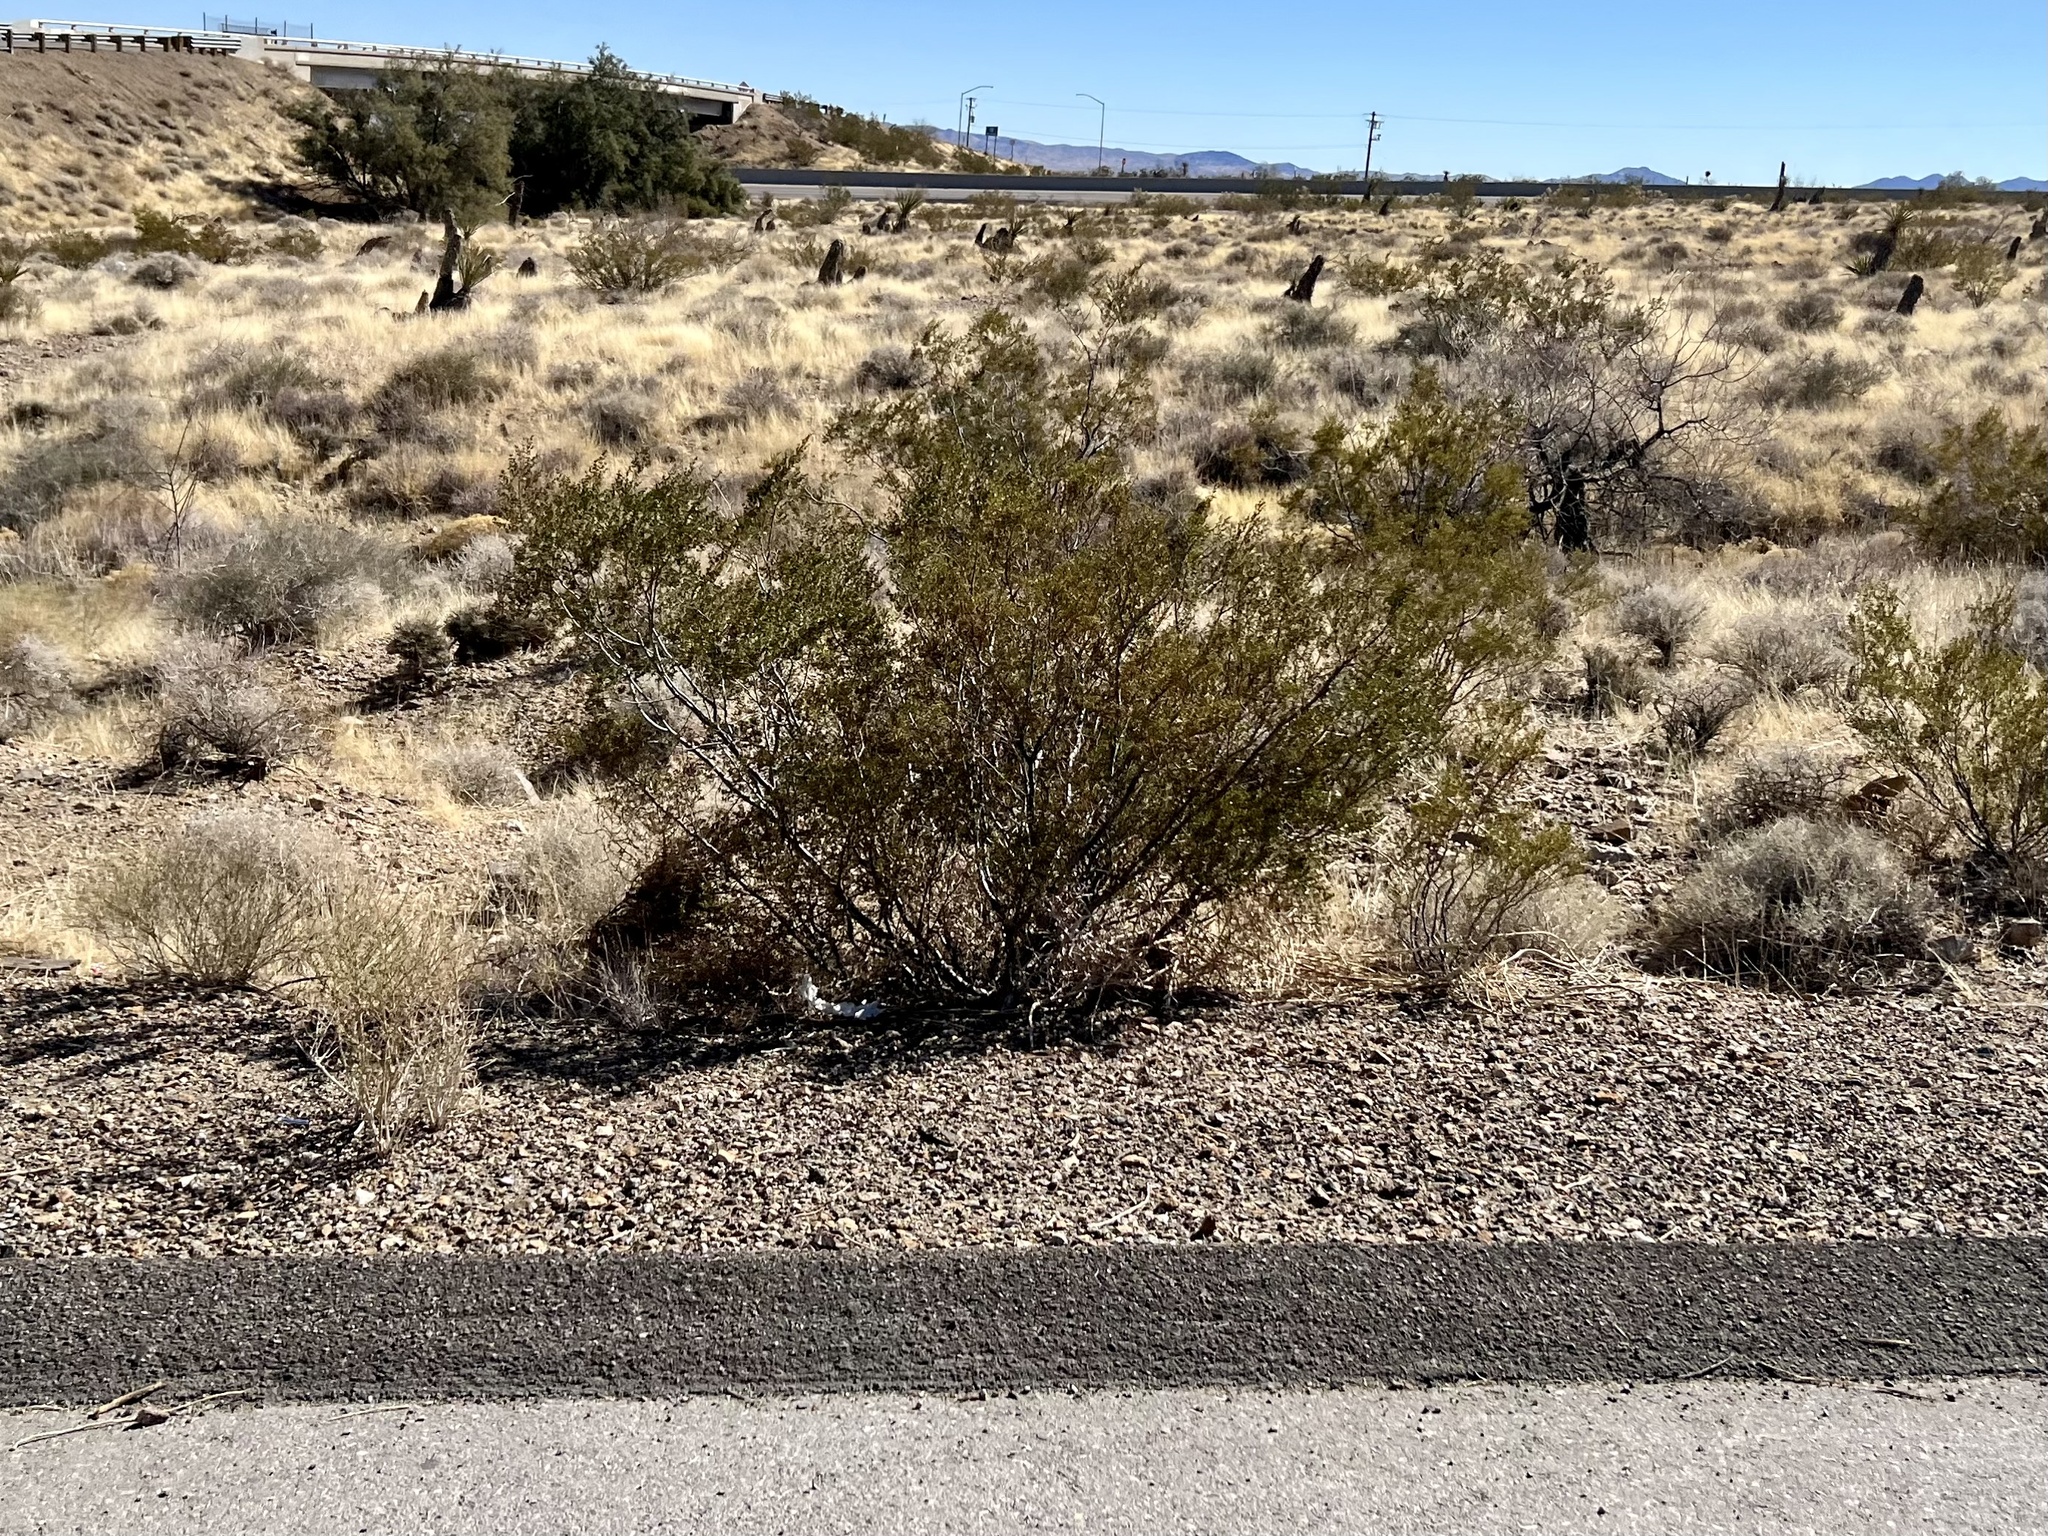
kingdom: Plantae
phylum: Tracheophyta
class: Magnoliopsida
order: Zygophyllales
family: Zygophyllaceae
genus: Larrea
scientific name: Larrea tridentata
